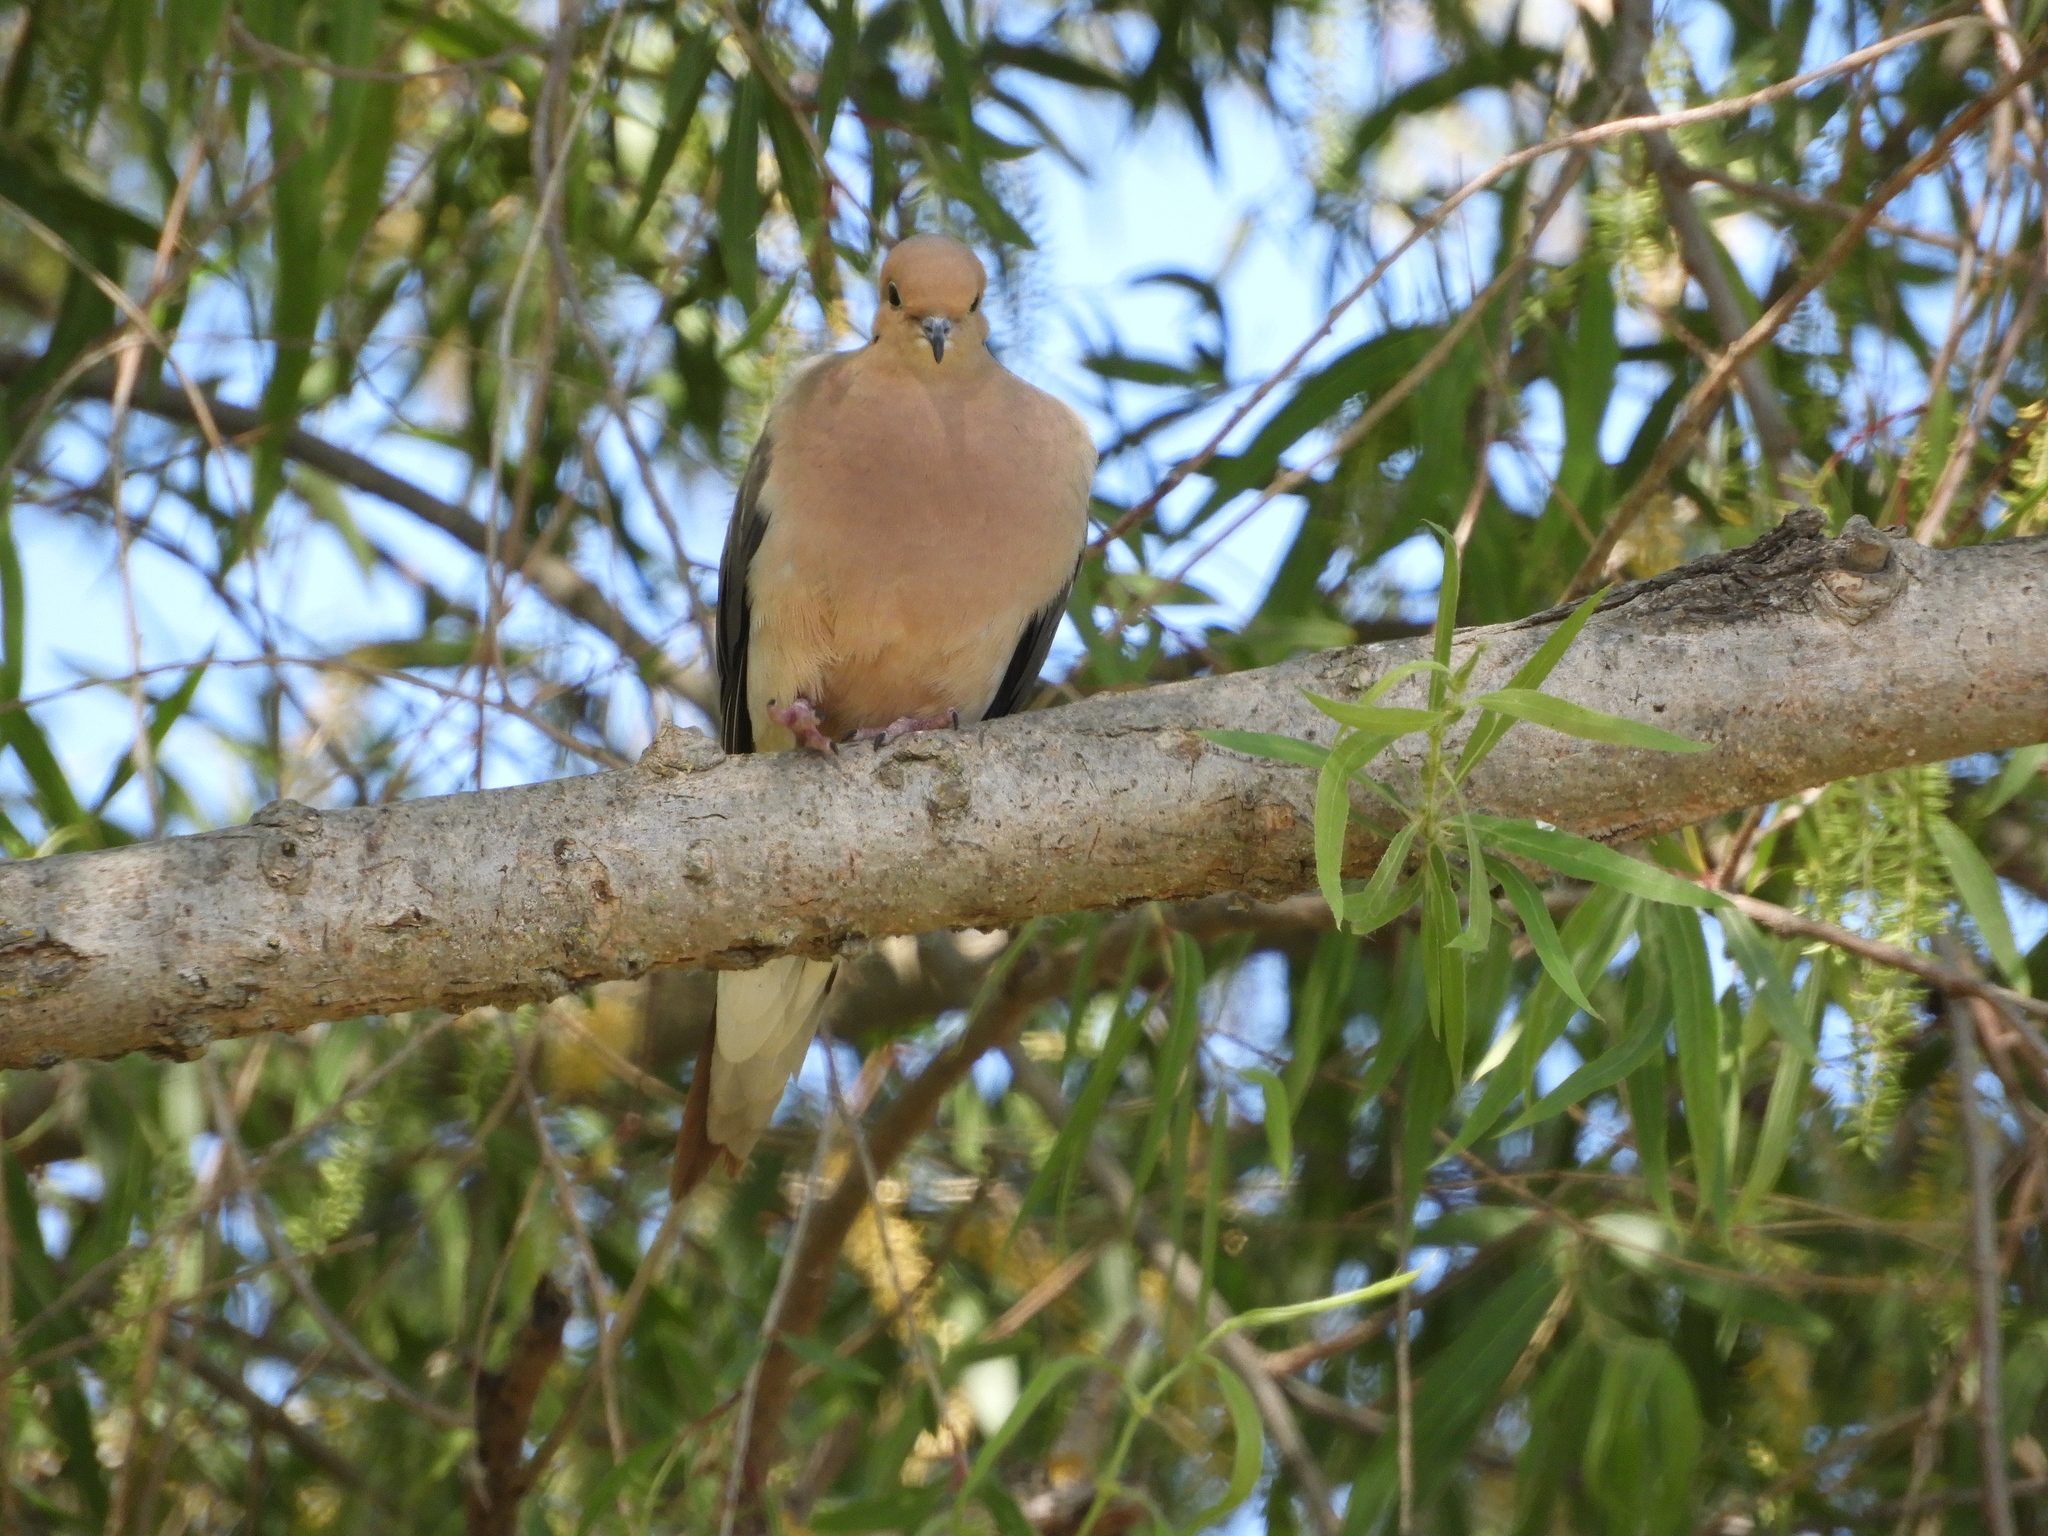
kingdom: Animalia
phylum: Chordata
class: Aves
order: Columbiformes
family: Columbidae
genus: Zenaida
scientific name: Zenaida macroura
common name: Mourning dove
